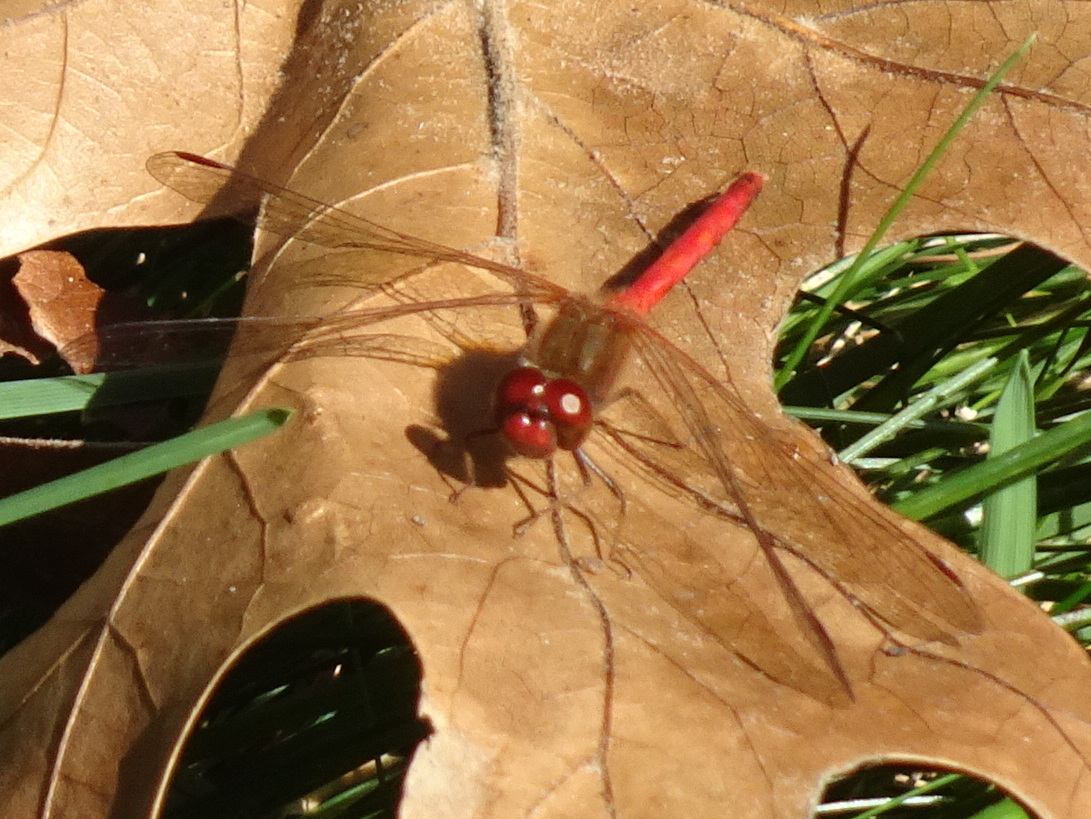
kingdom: Animalia
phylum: Arthropoda
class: Insecta
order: Odonata
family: Libellulidae
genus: Sympetrum
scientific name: Sympetrum vicinum
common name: Autumn meadowhawk
